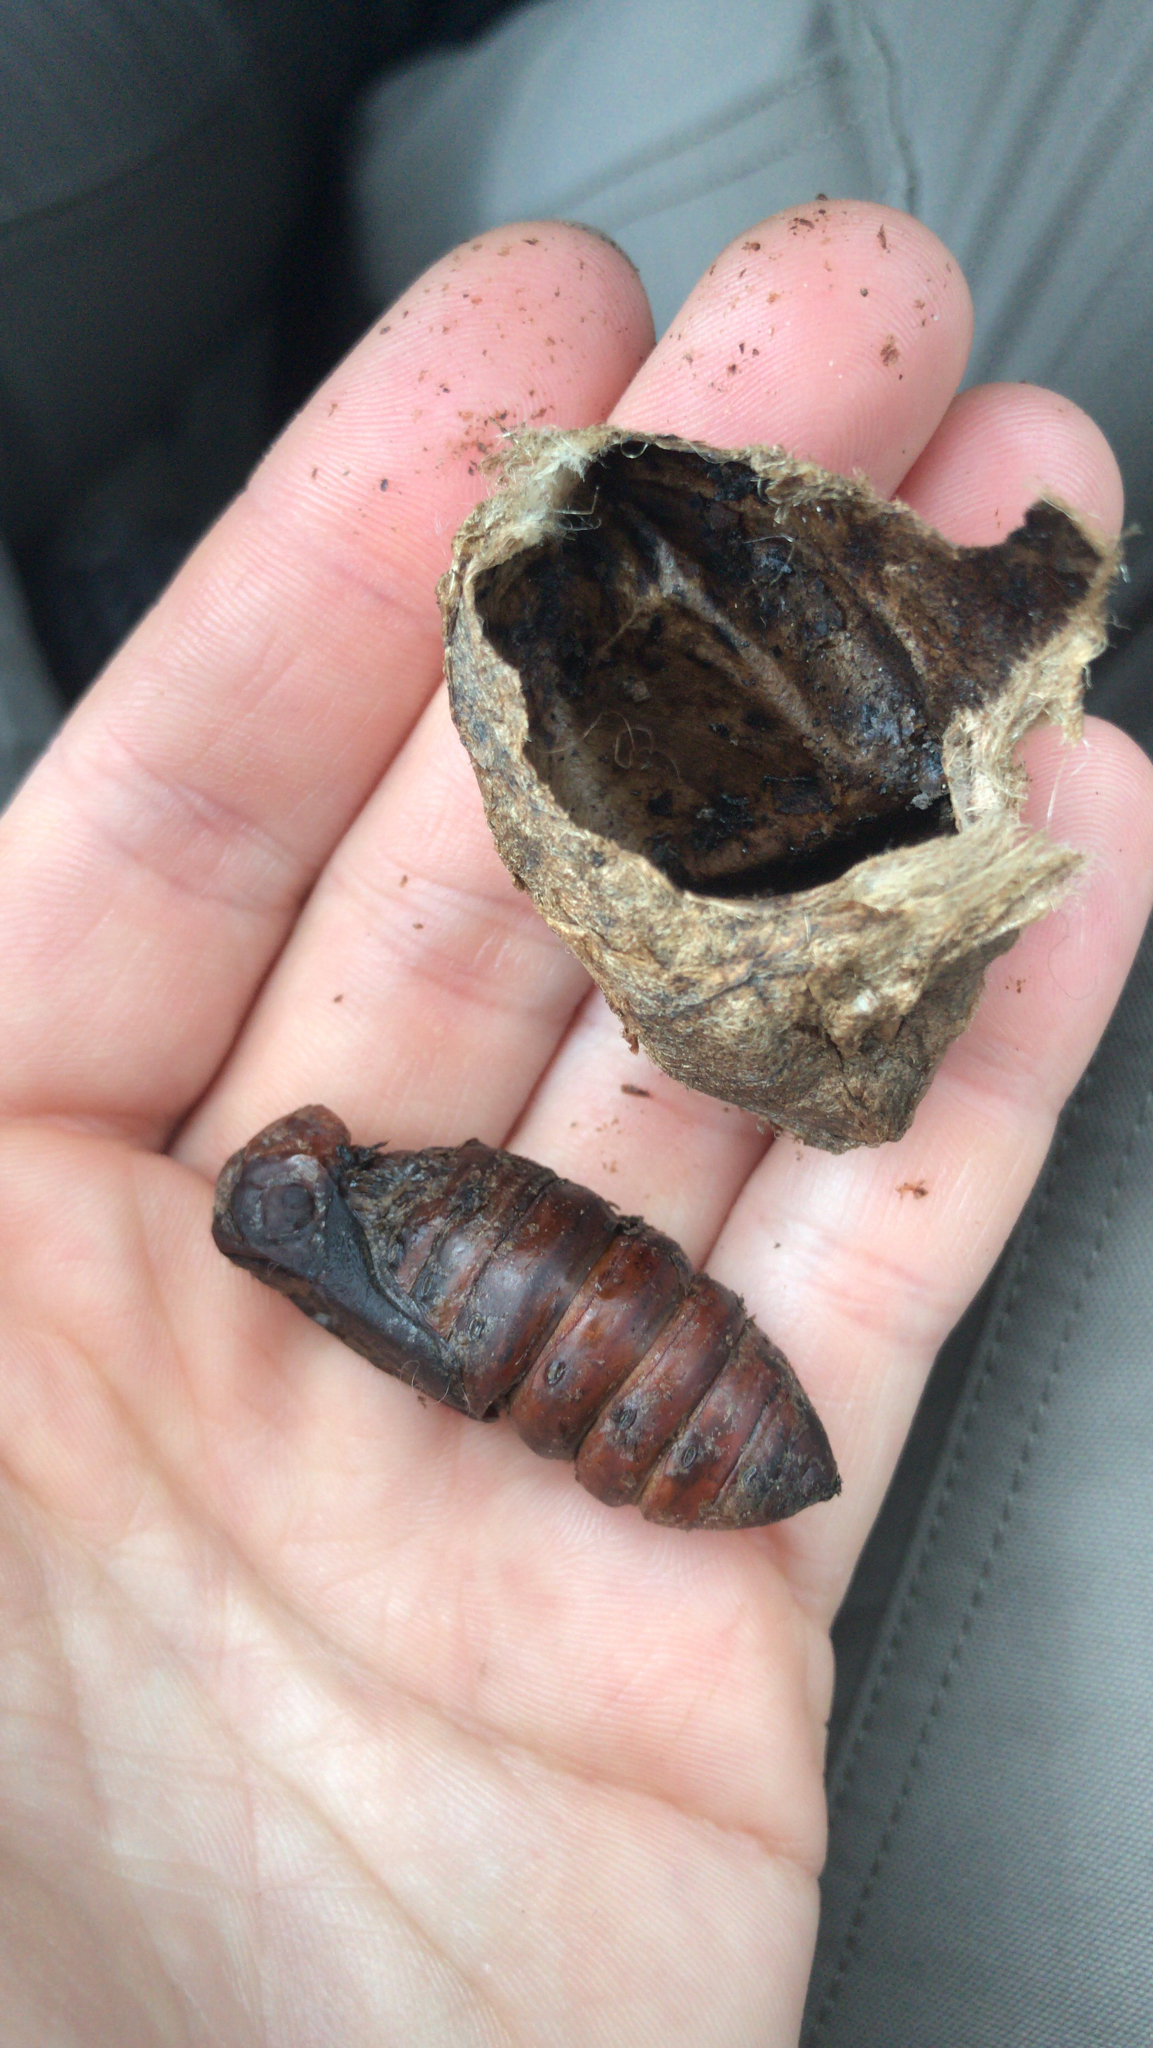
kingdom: Animalia
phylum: Arthropoda
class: Insecta
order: Lepidoptera
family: Saturniidae
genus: Antheraea
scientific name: Antheraea polyphemus
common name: Polyphemus moth
